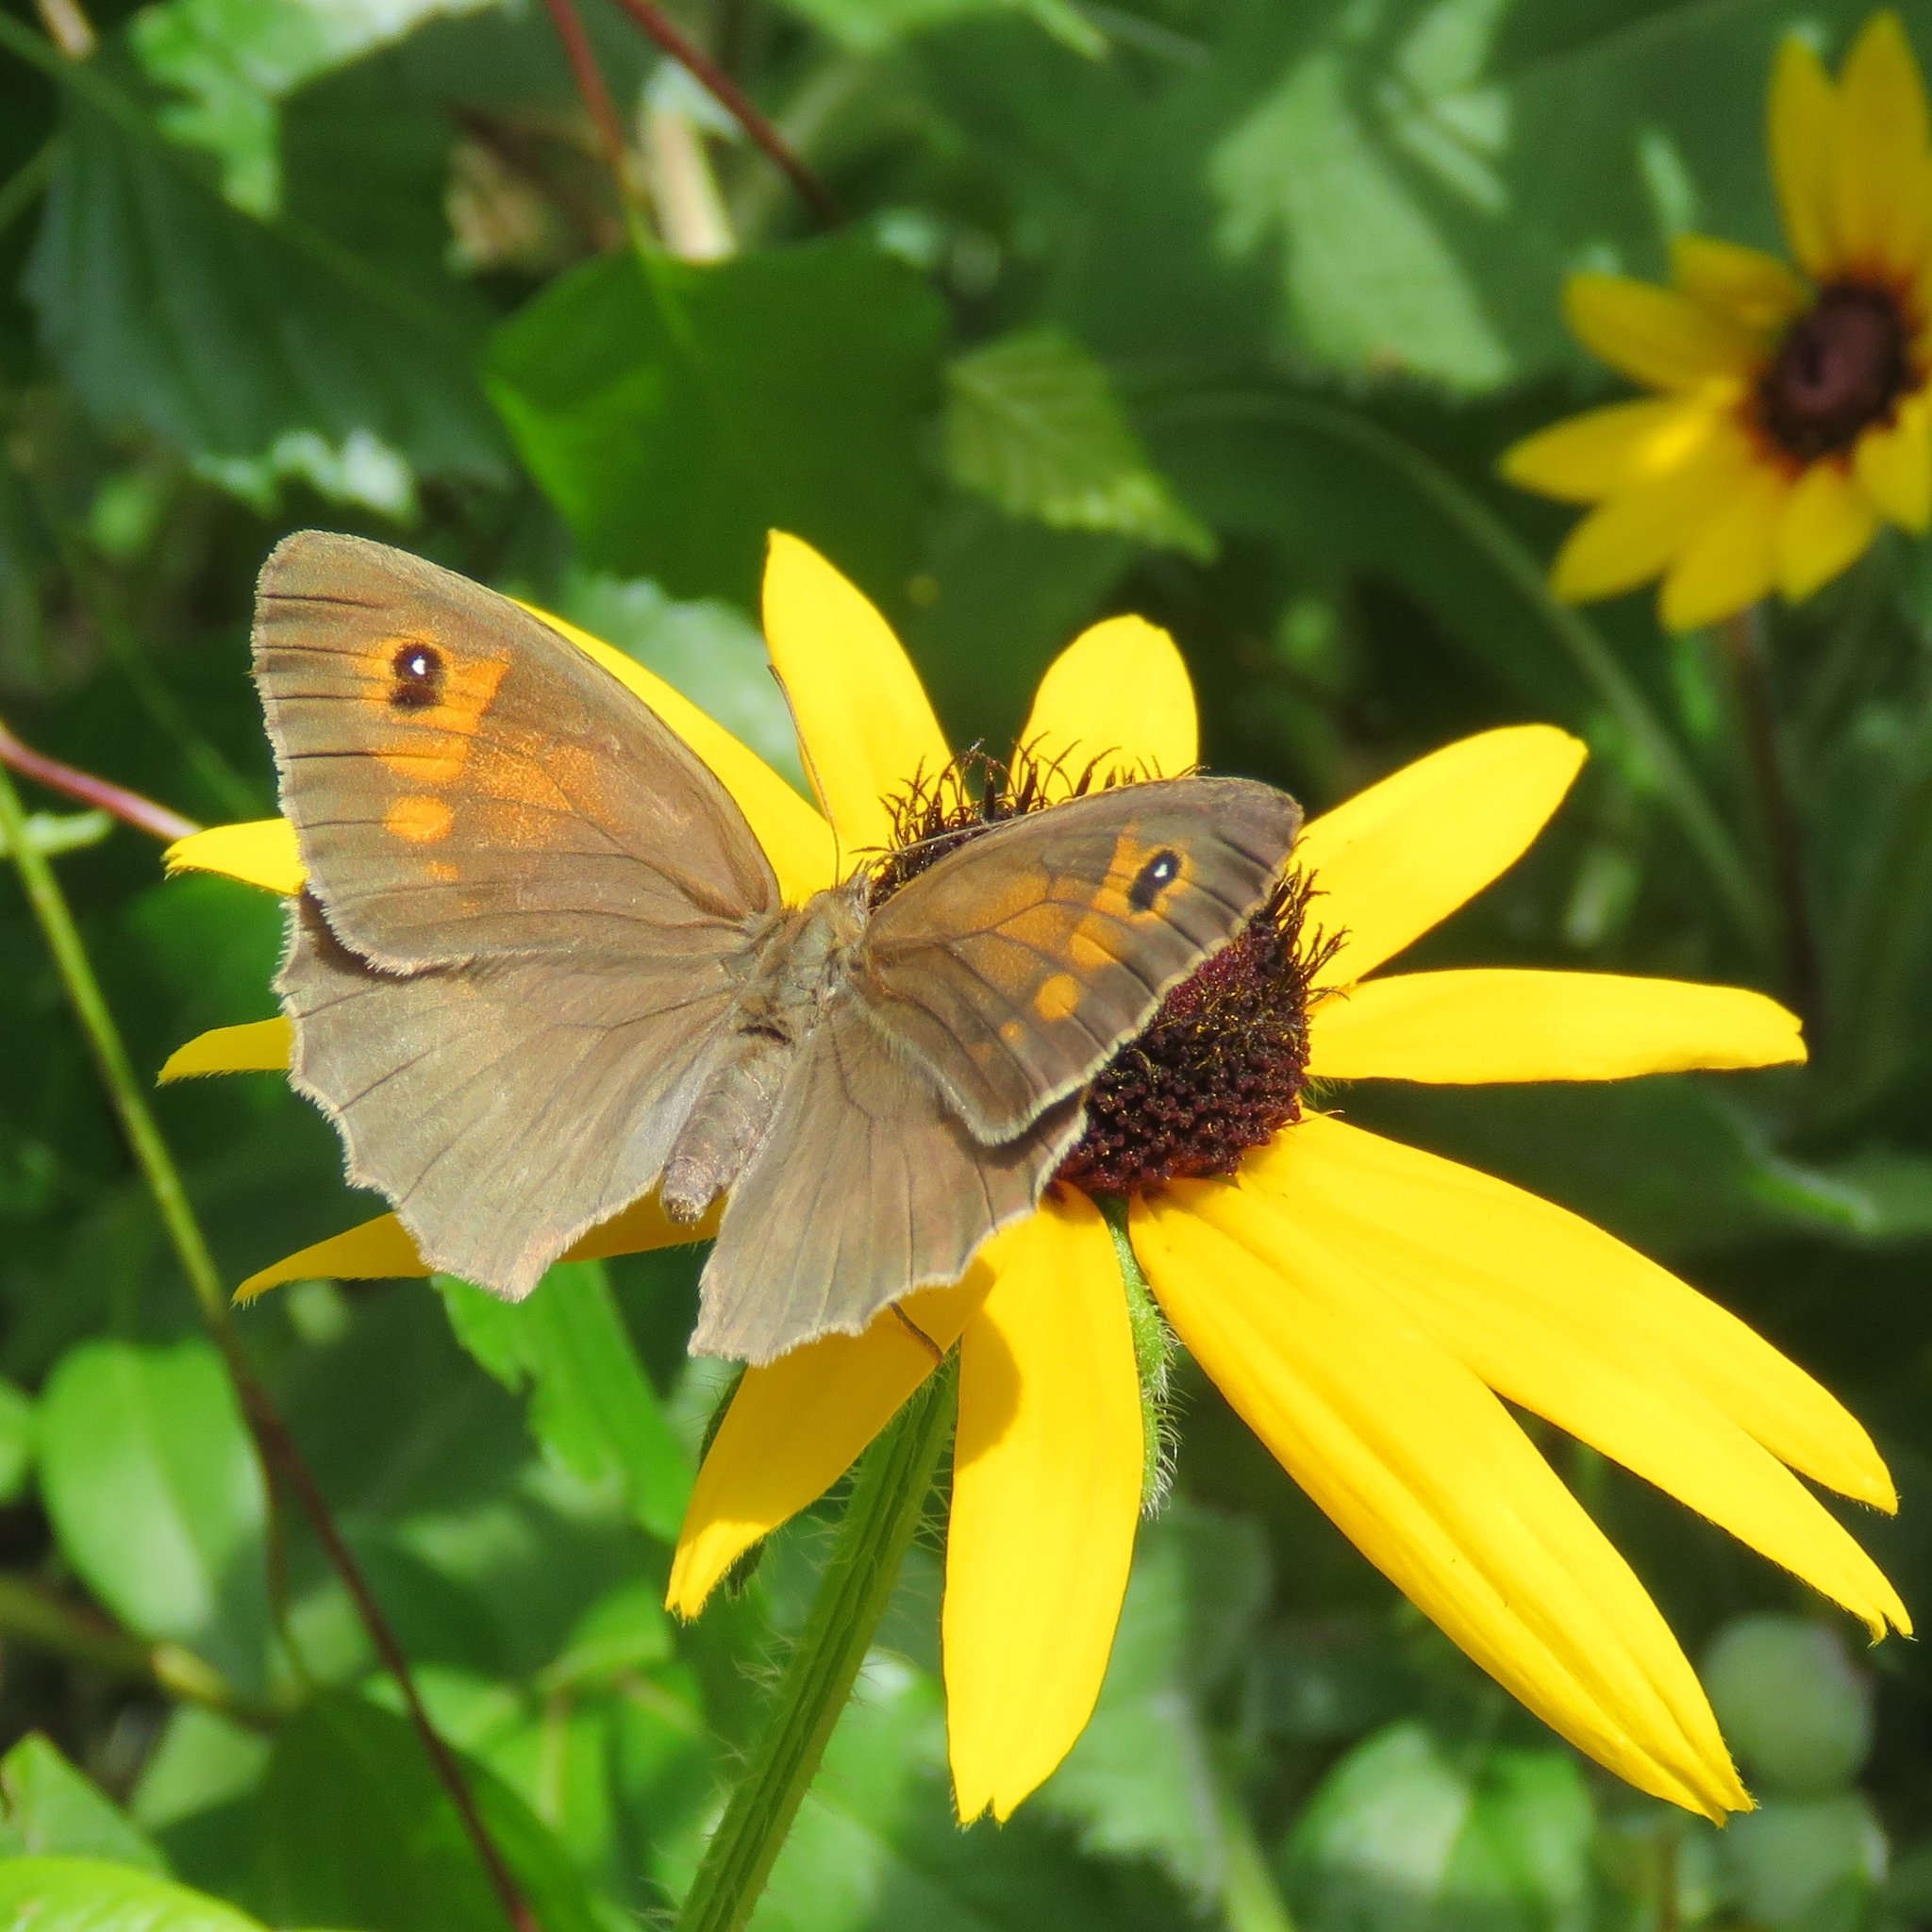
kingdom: Animalia
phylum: Arthropoda
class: Insecta
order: Lepidoptera
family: Nymphalidae
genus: Maniola
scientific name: Maniola jurtina
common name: Meadow brown
